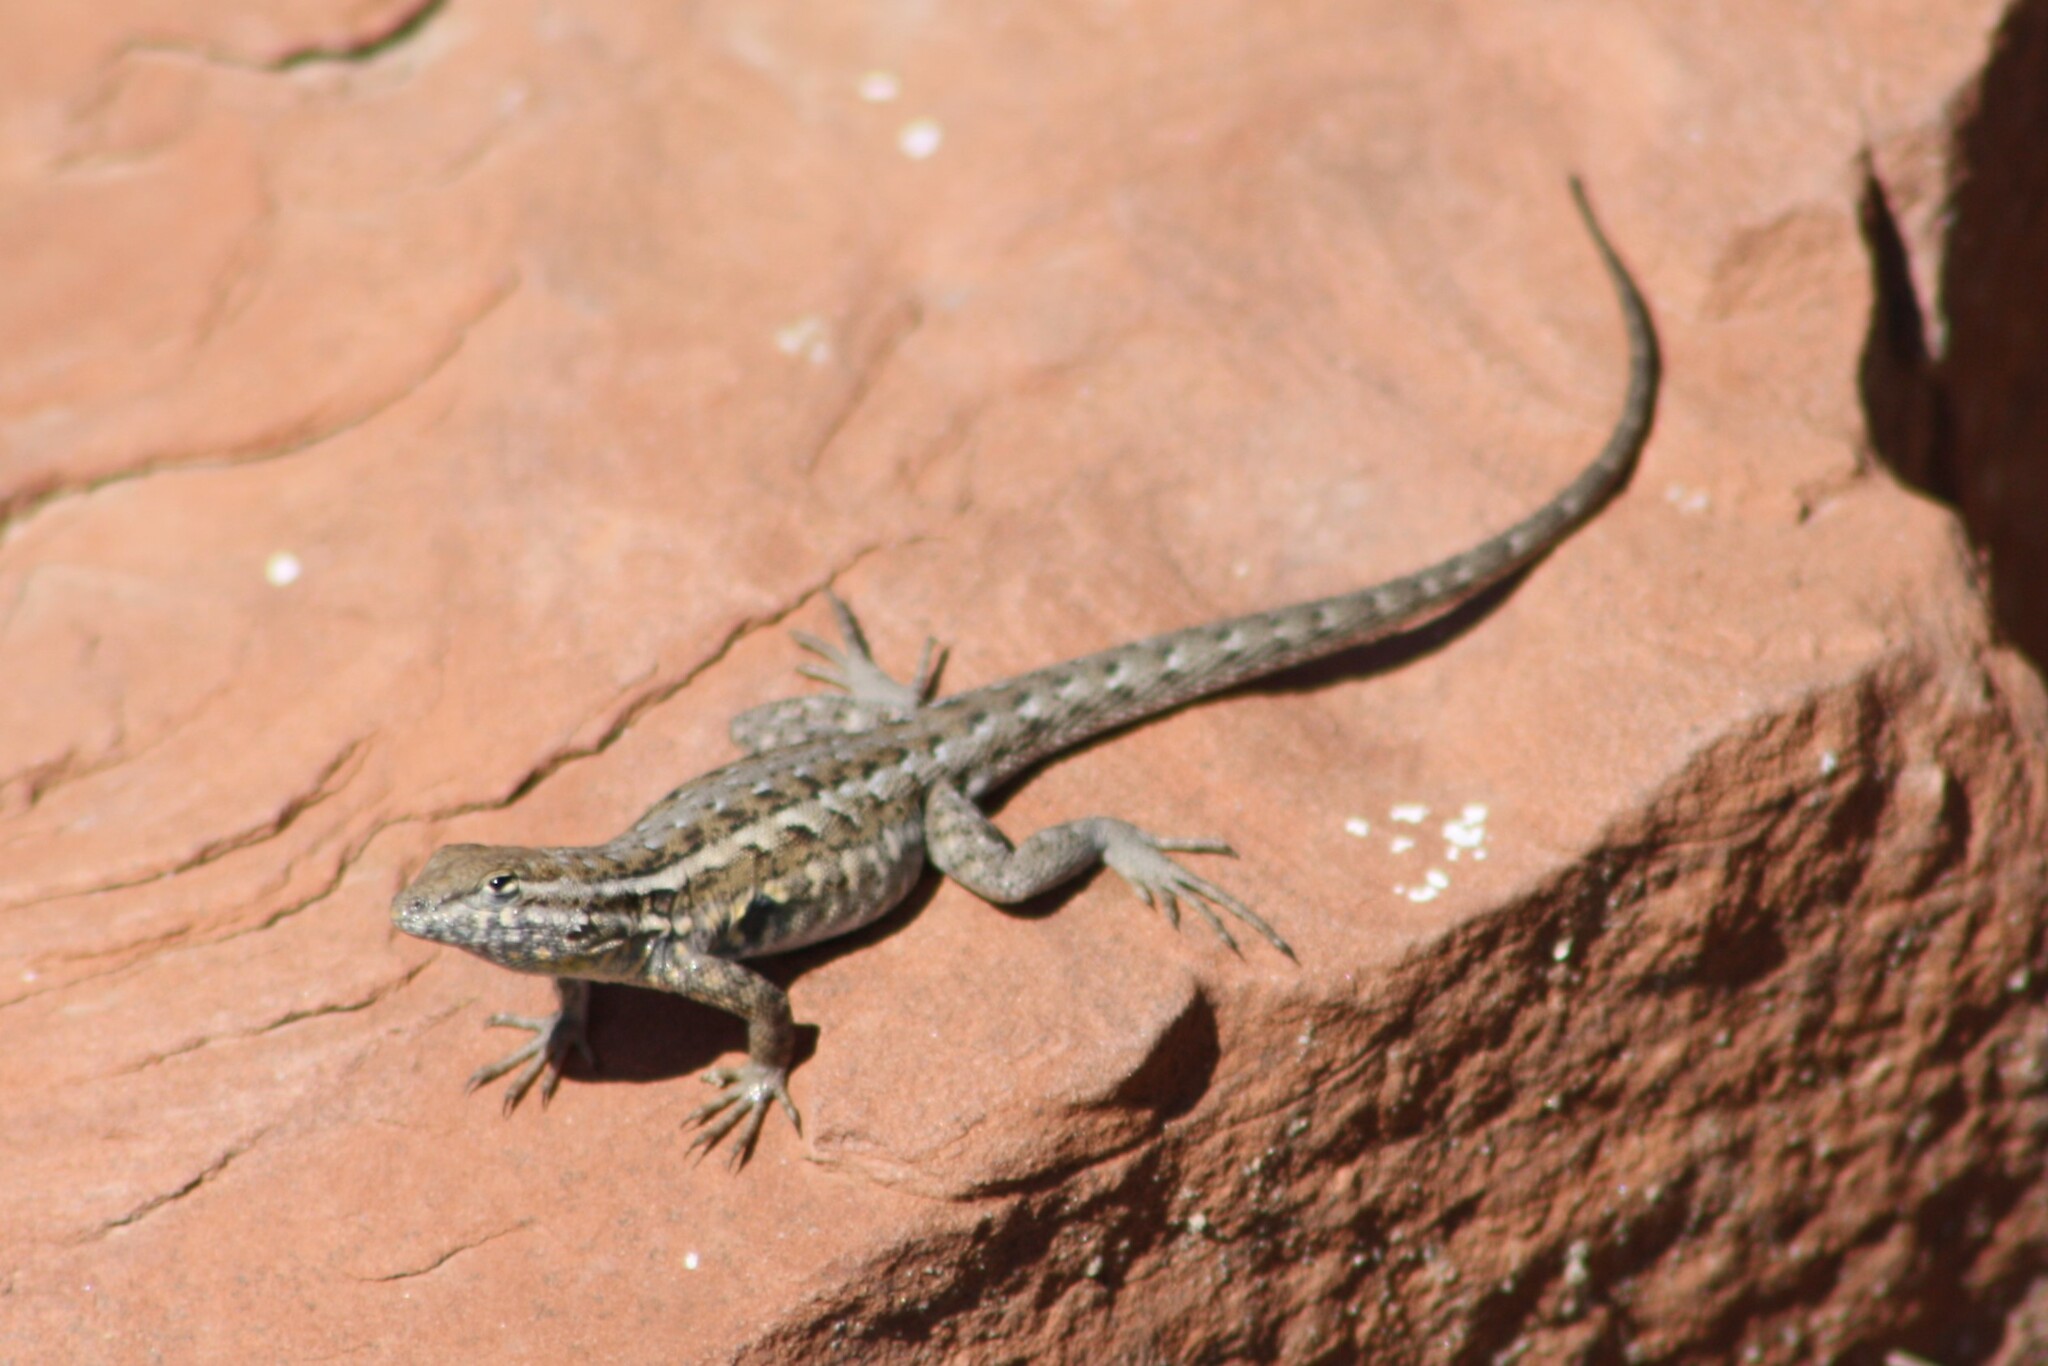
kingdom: Animalia
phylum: Chordata
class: Squamata
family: Phrynosomatidae
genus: Uta
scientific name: Uta stansburiana
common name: Side-blotched lizard
